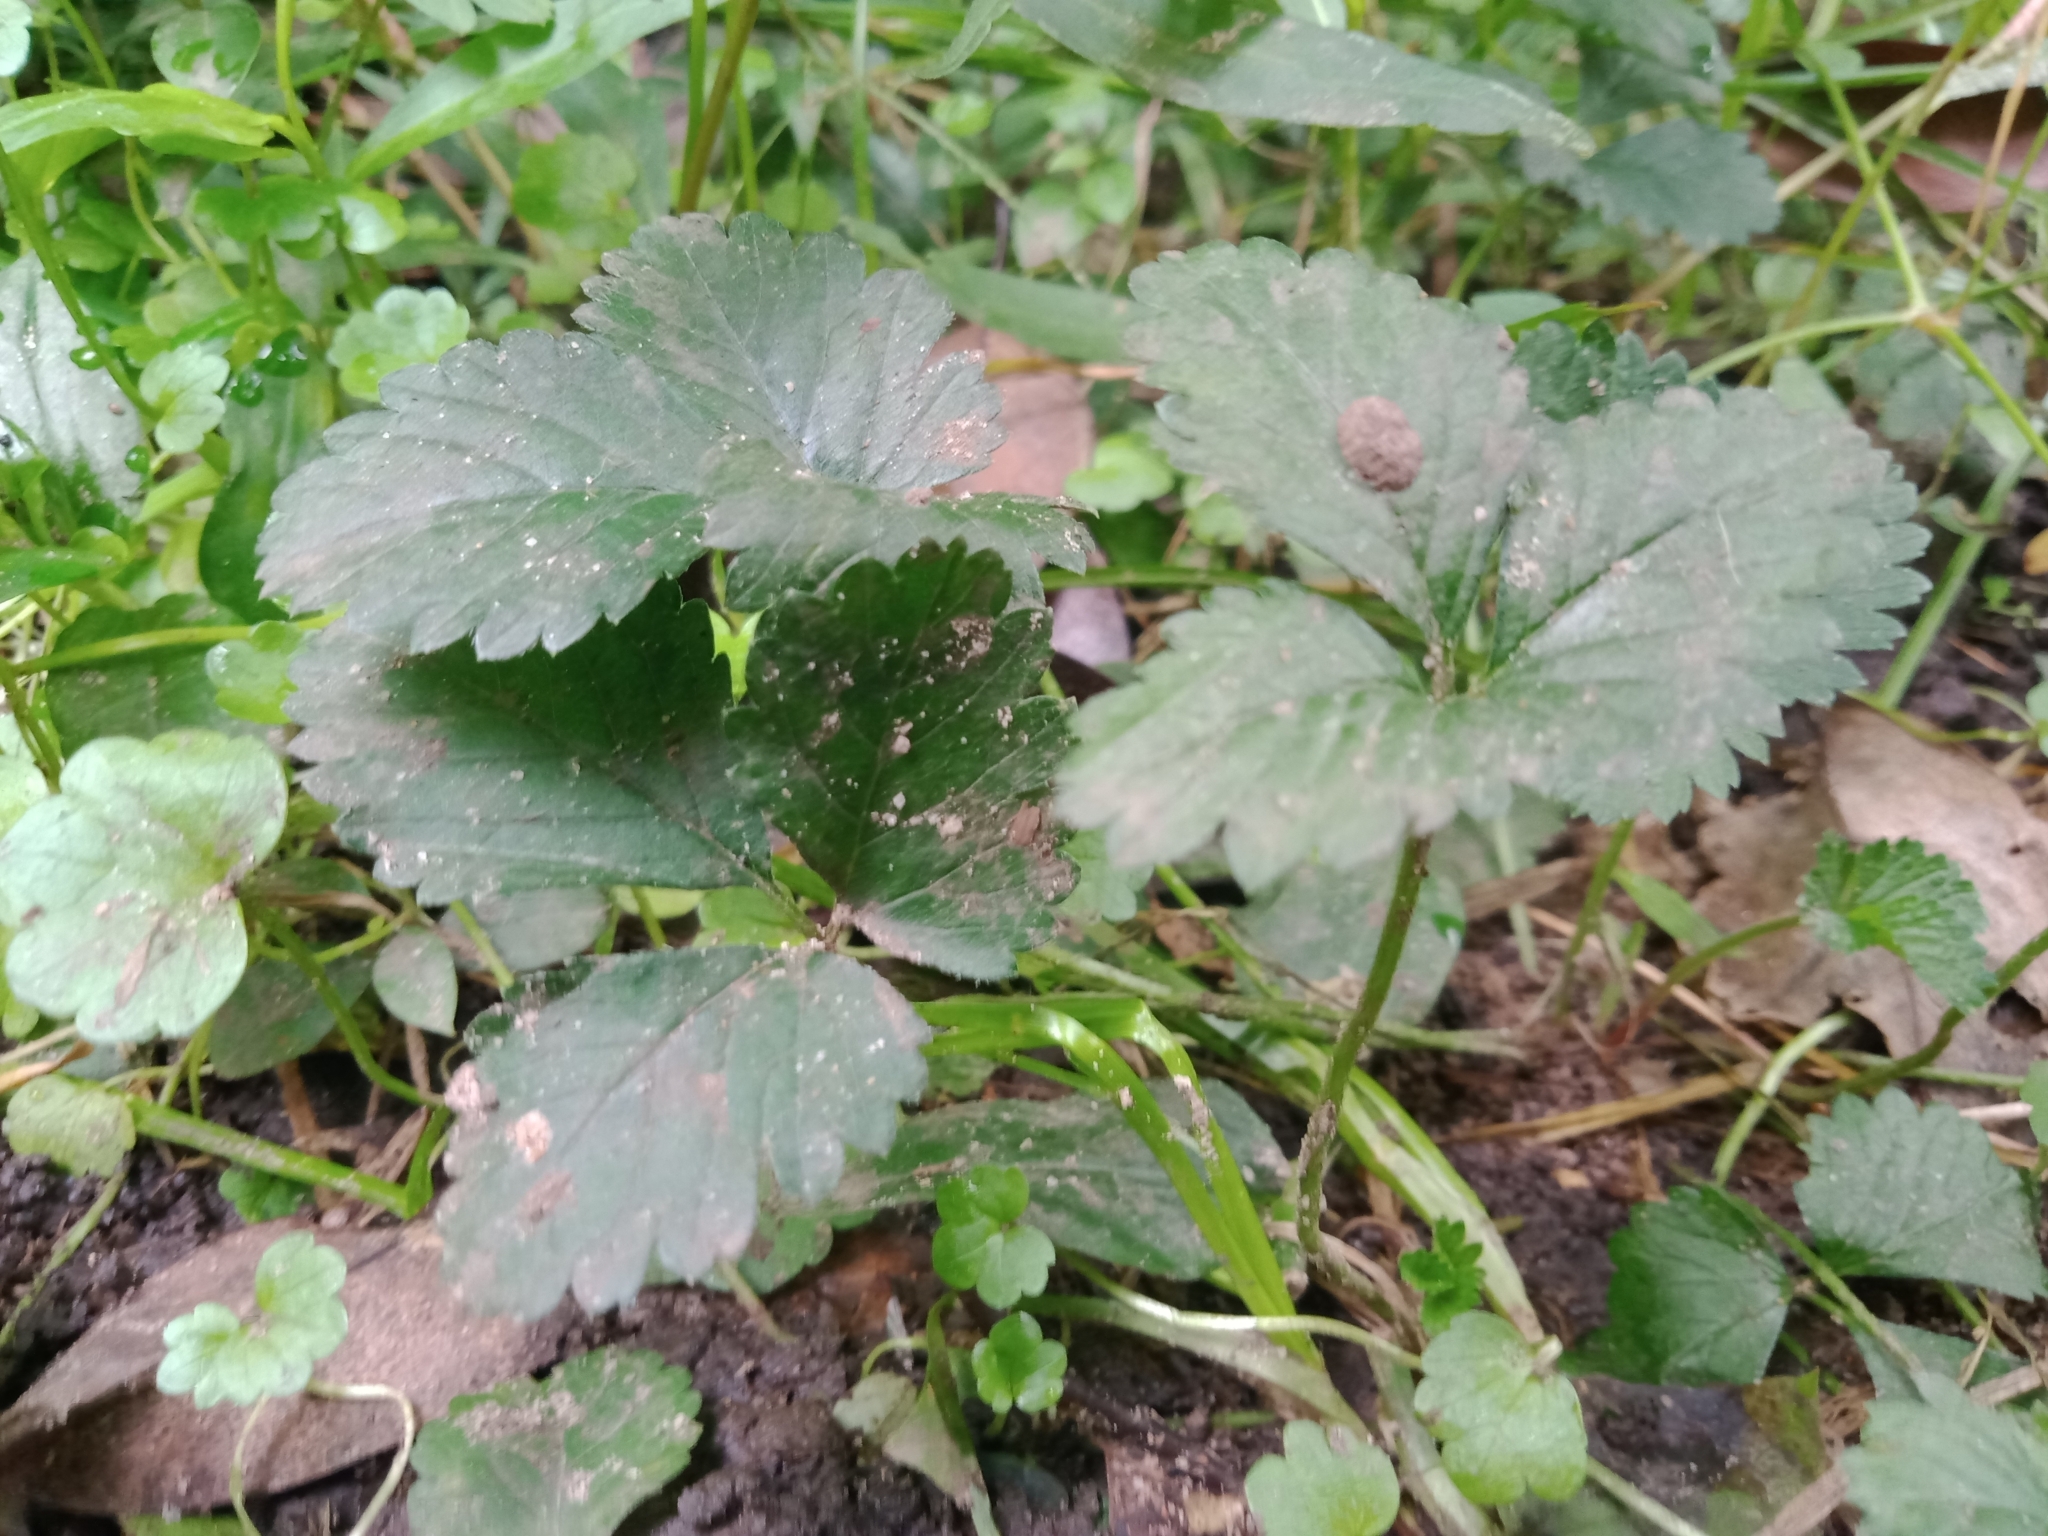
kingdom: Plantae
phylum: Tracheophyta
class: Magnoliopsida
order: Rosales
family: Rosaceae
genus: Potentilla
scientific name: Potentilla indica
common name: Yellow-flowered strawberry
